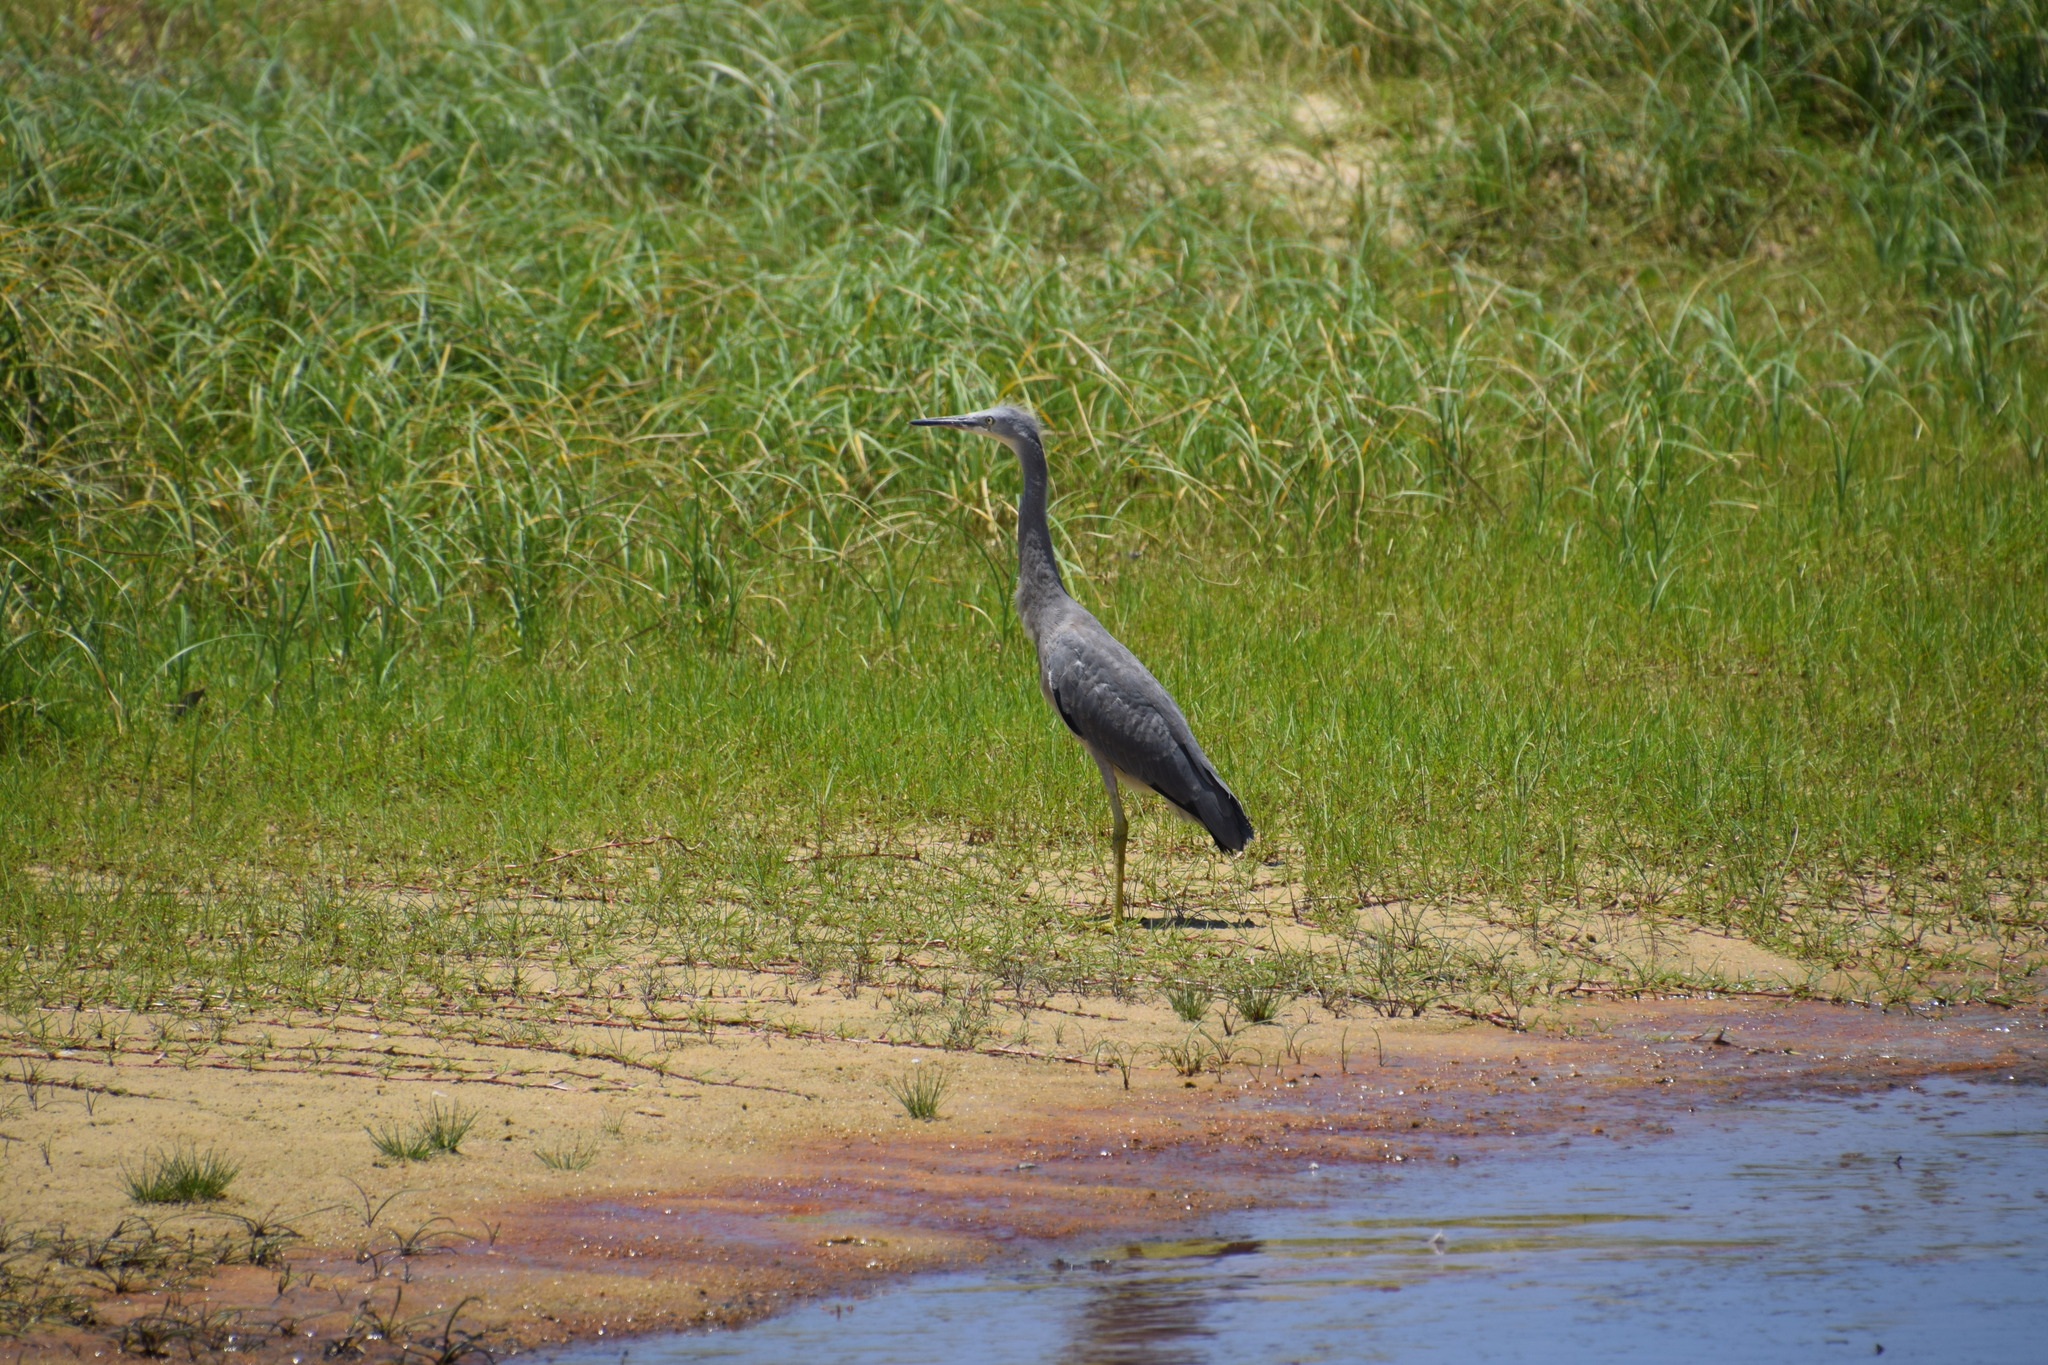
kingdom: Animalia
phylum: Chordata
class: Aves
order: Pelecaniformes
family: Ardeidae
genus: Egretta
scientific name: Egretta novaehollandiae
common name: White-faced heron
